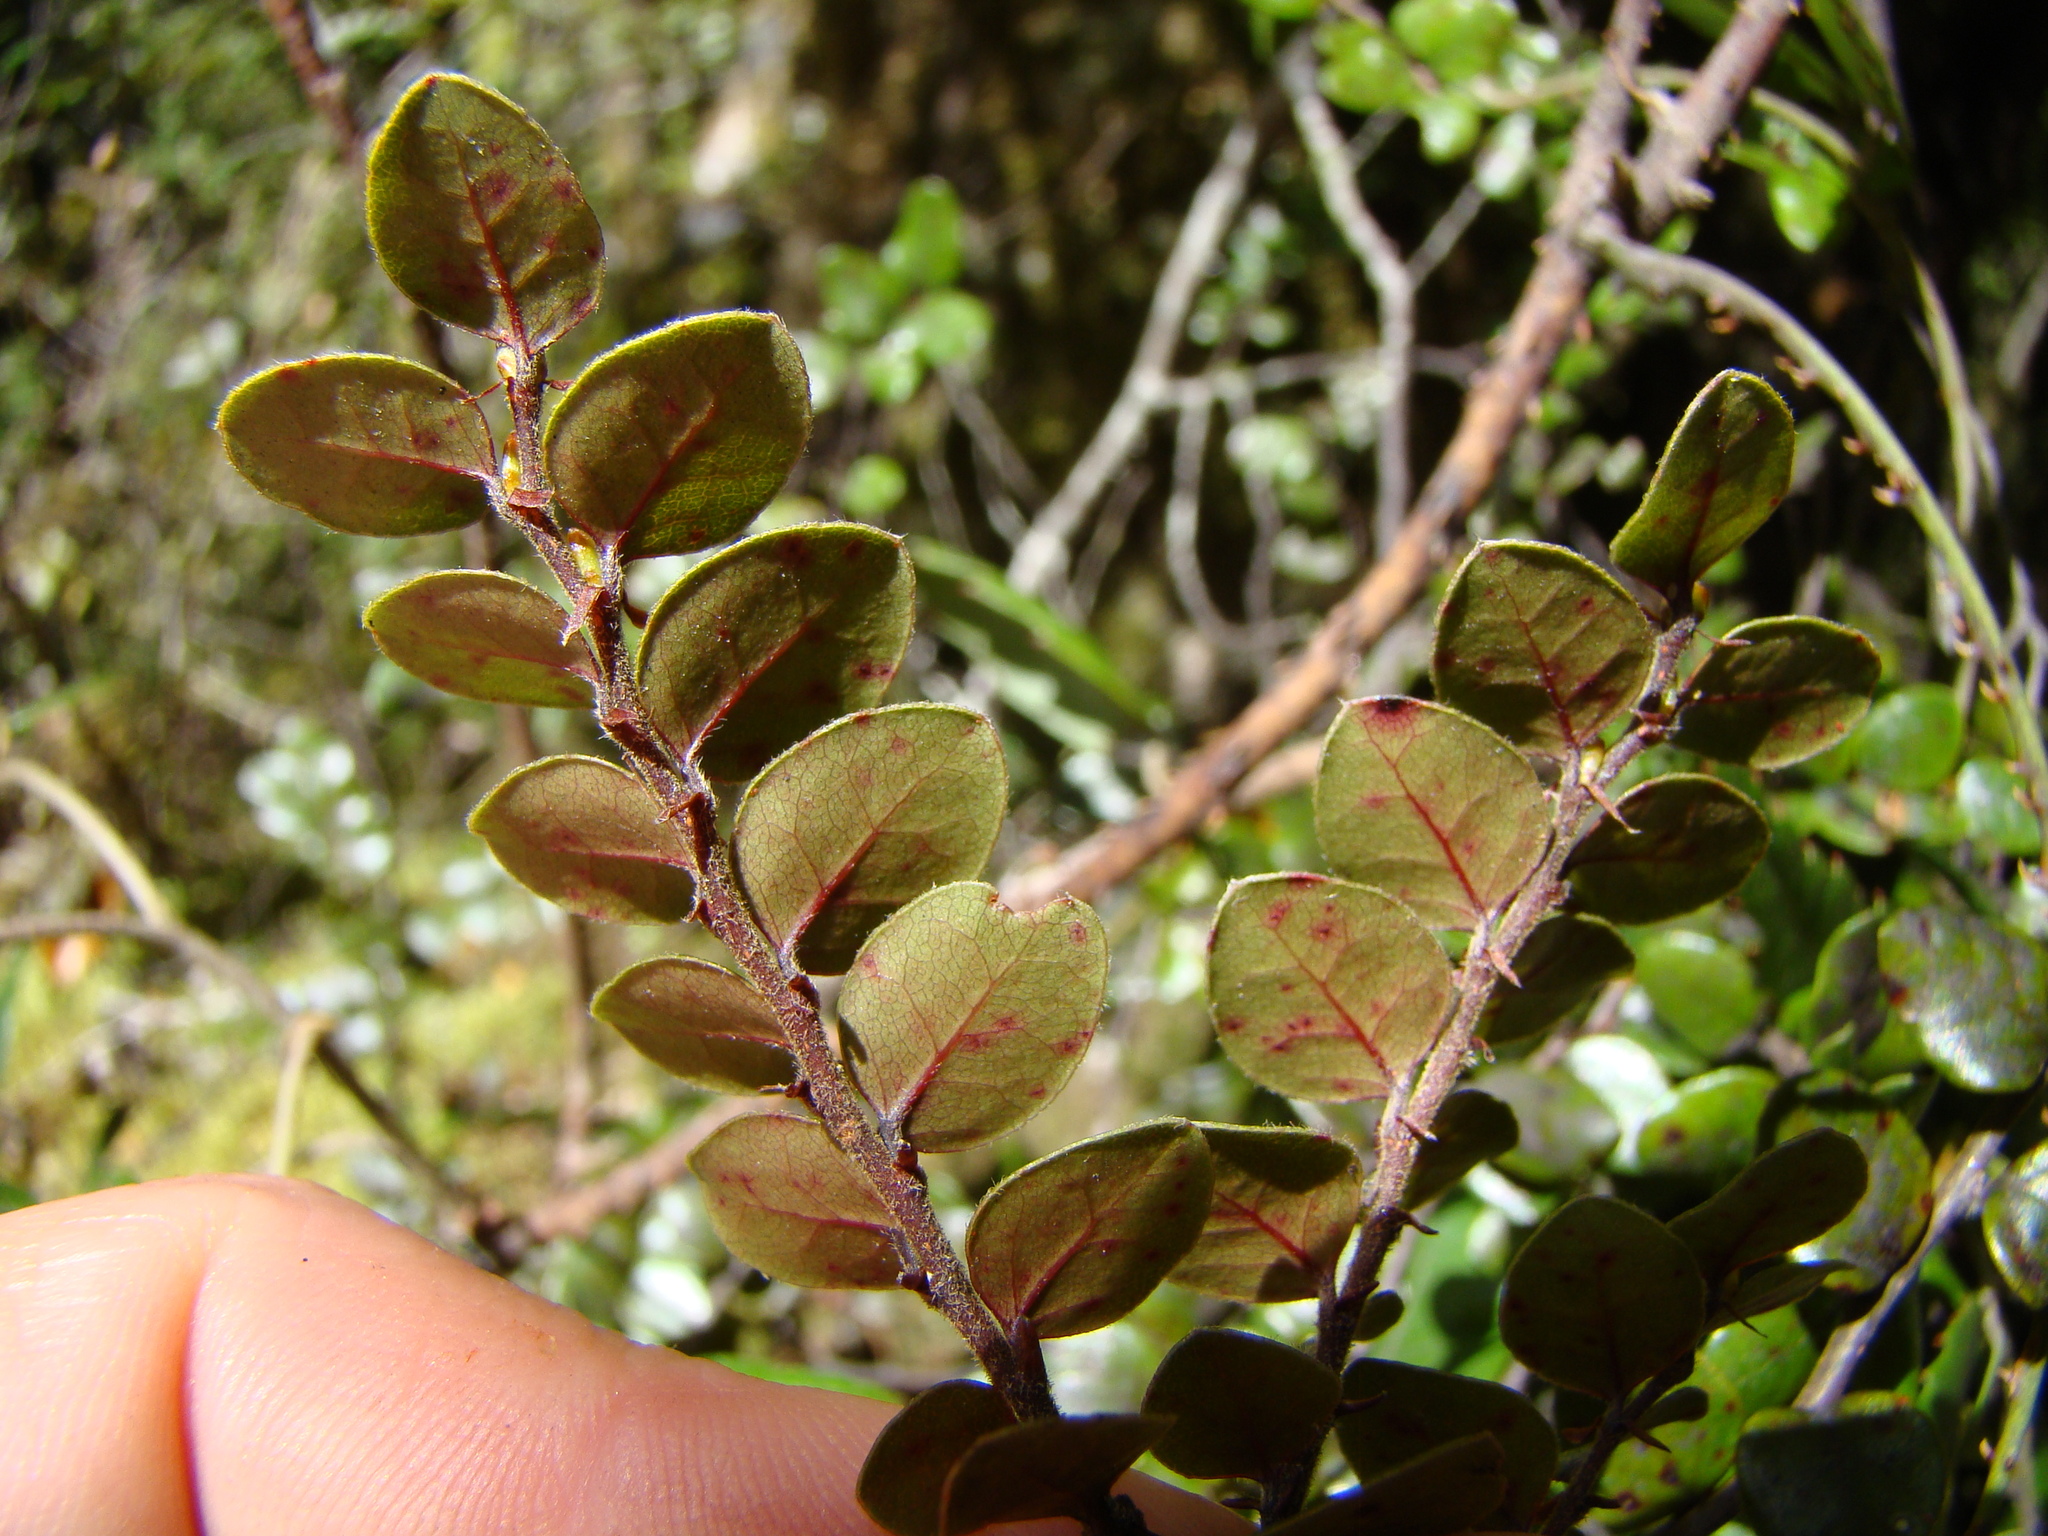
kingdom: Plantae
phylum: Tracheophyta
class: Magnoliopsida
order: Fagales
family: Nothofagaceae
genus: Nothofagus
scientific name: Nothofagus
